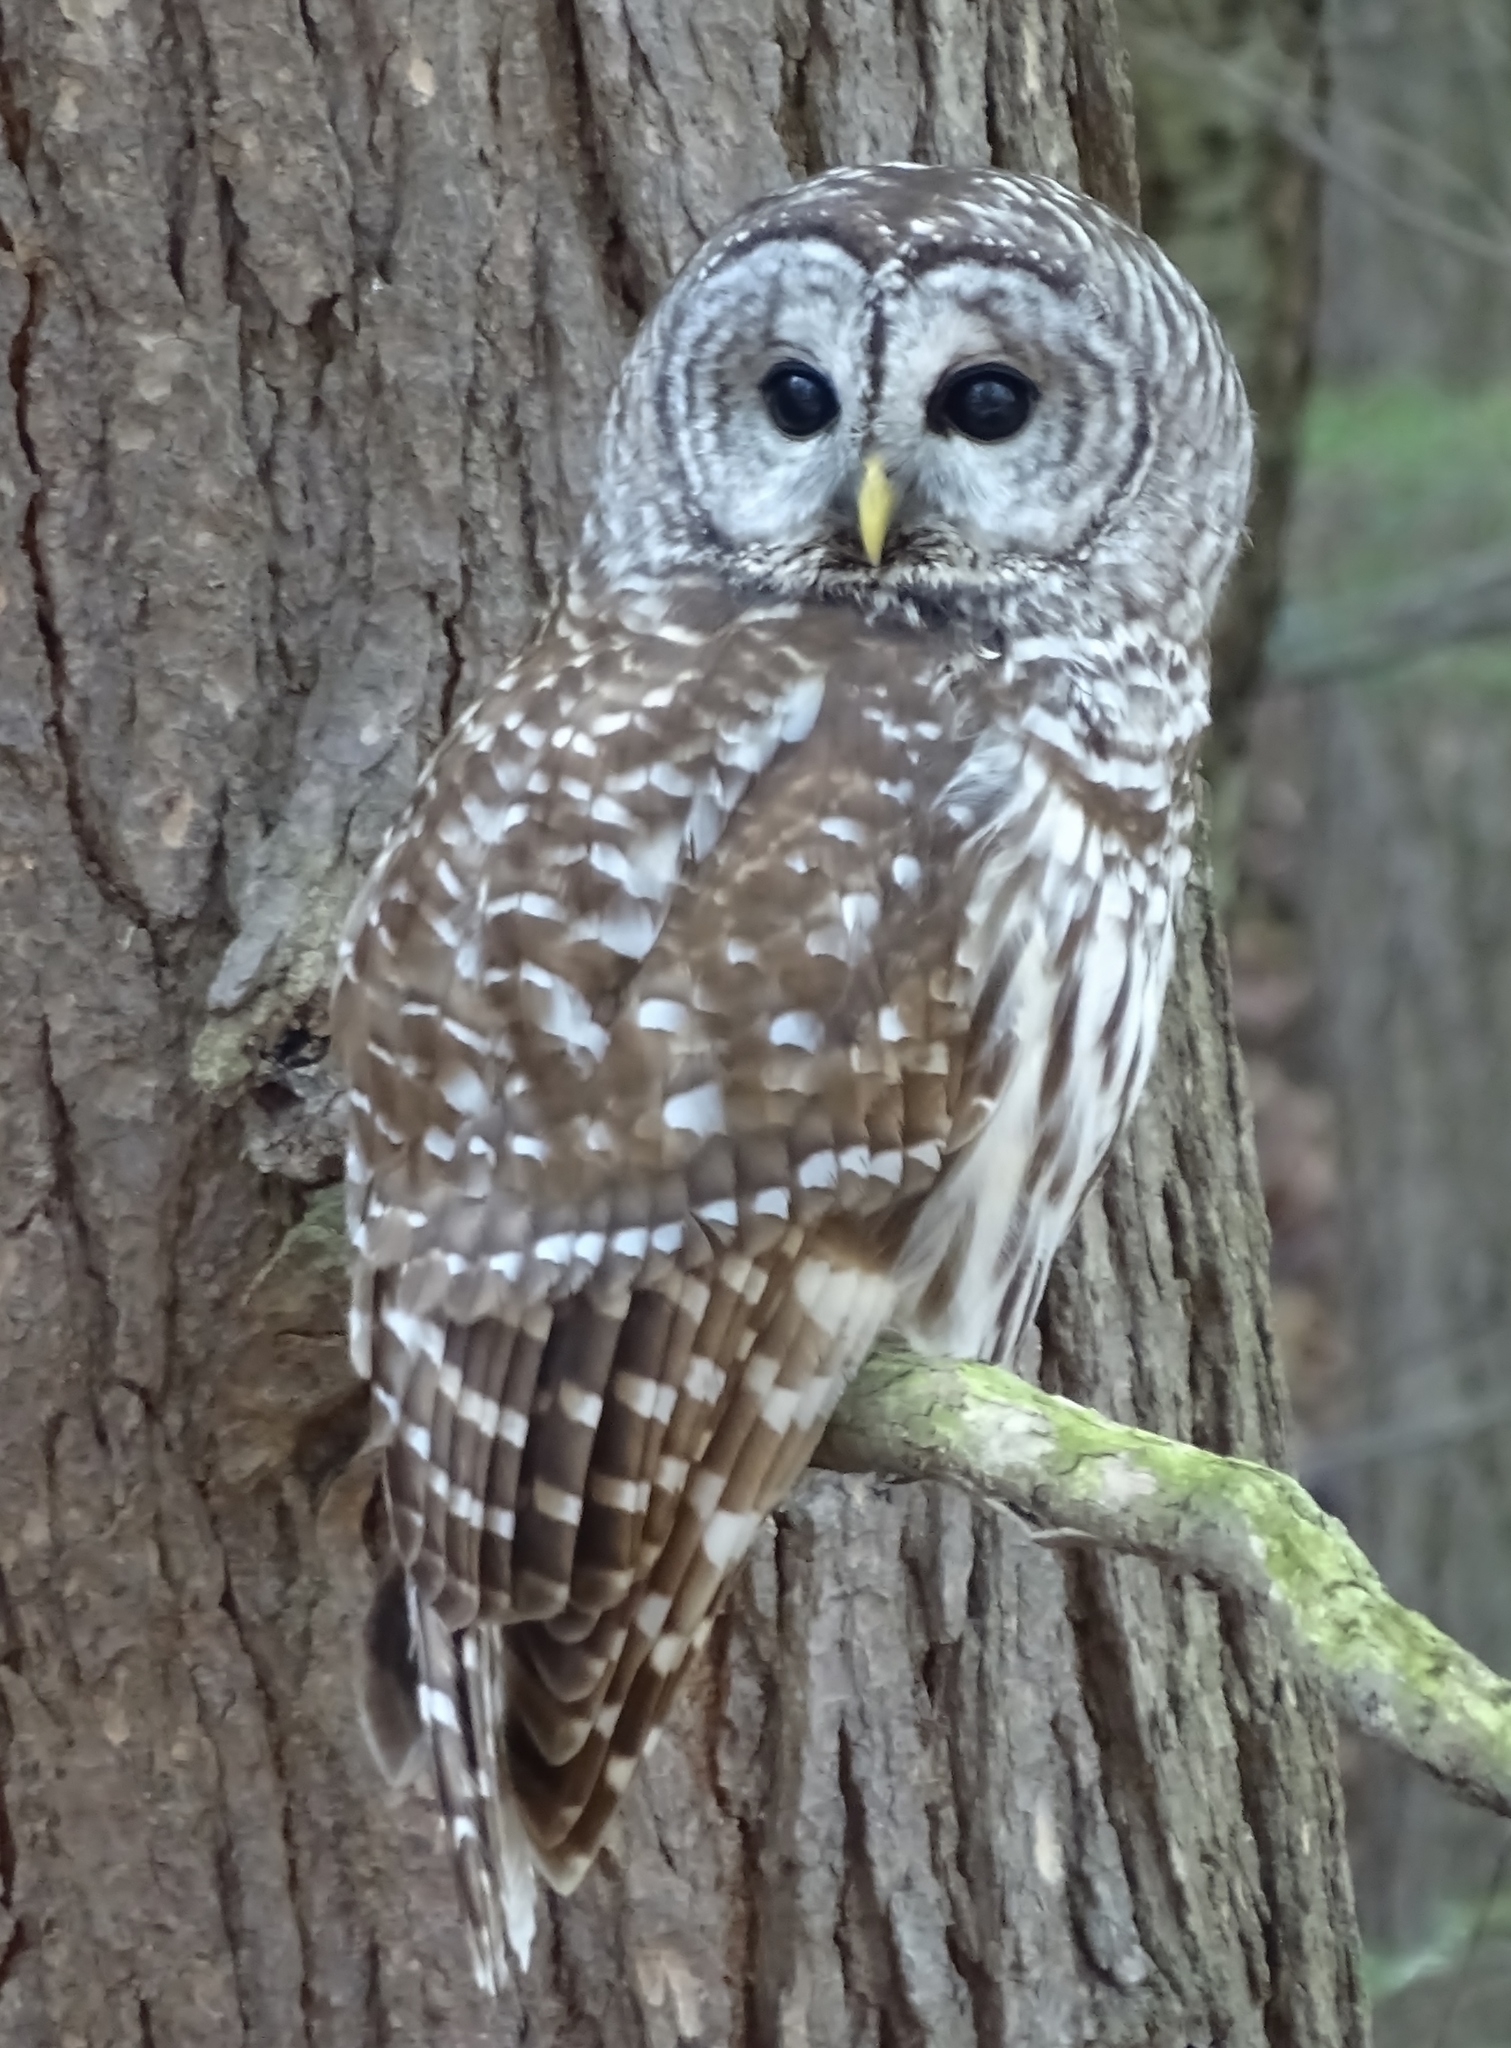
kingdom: Animalia
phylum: Chordata
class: Aves
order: Strigiformes
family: Strigidae
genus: Strix
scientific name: Strix varia
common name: Barred owl
